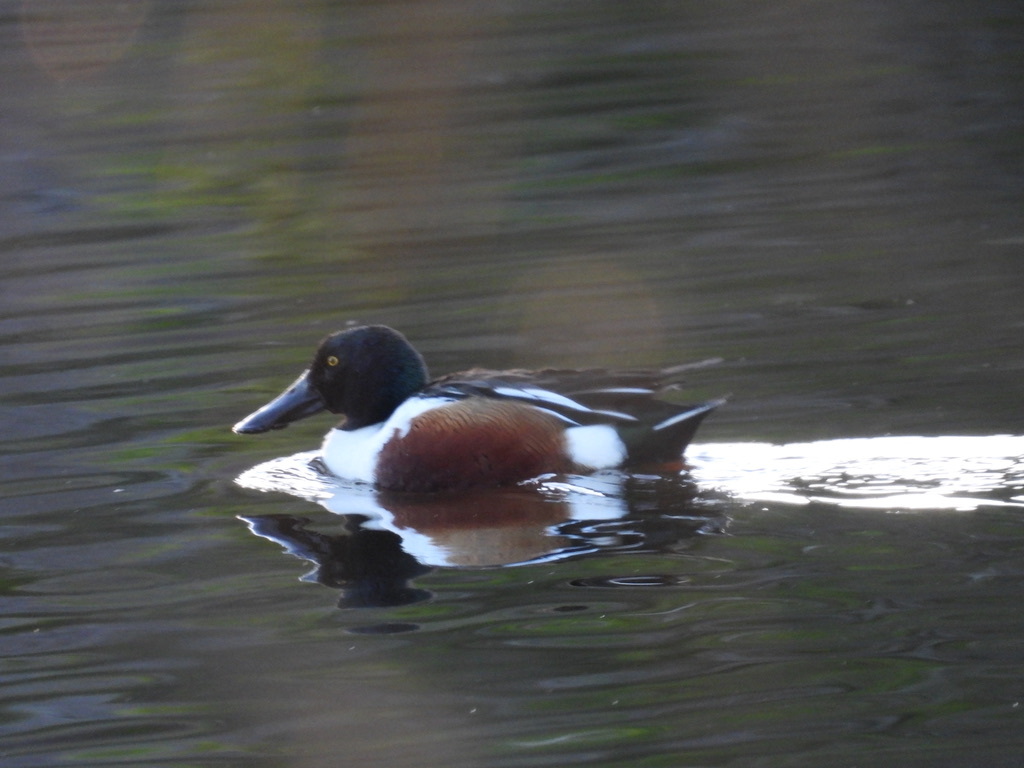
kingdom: Animalia
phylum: Chordata
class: Aves
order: Anseriformes
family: Anatidae
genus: Spatula
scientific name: Spatula clypeata
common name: Northern shoveler
